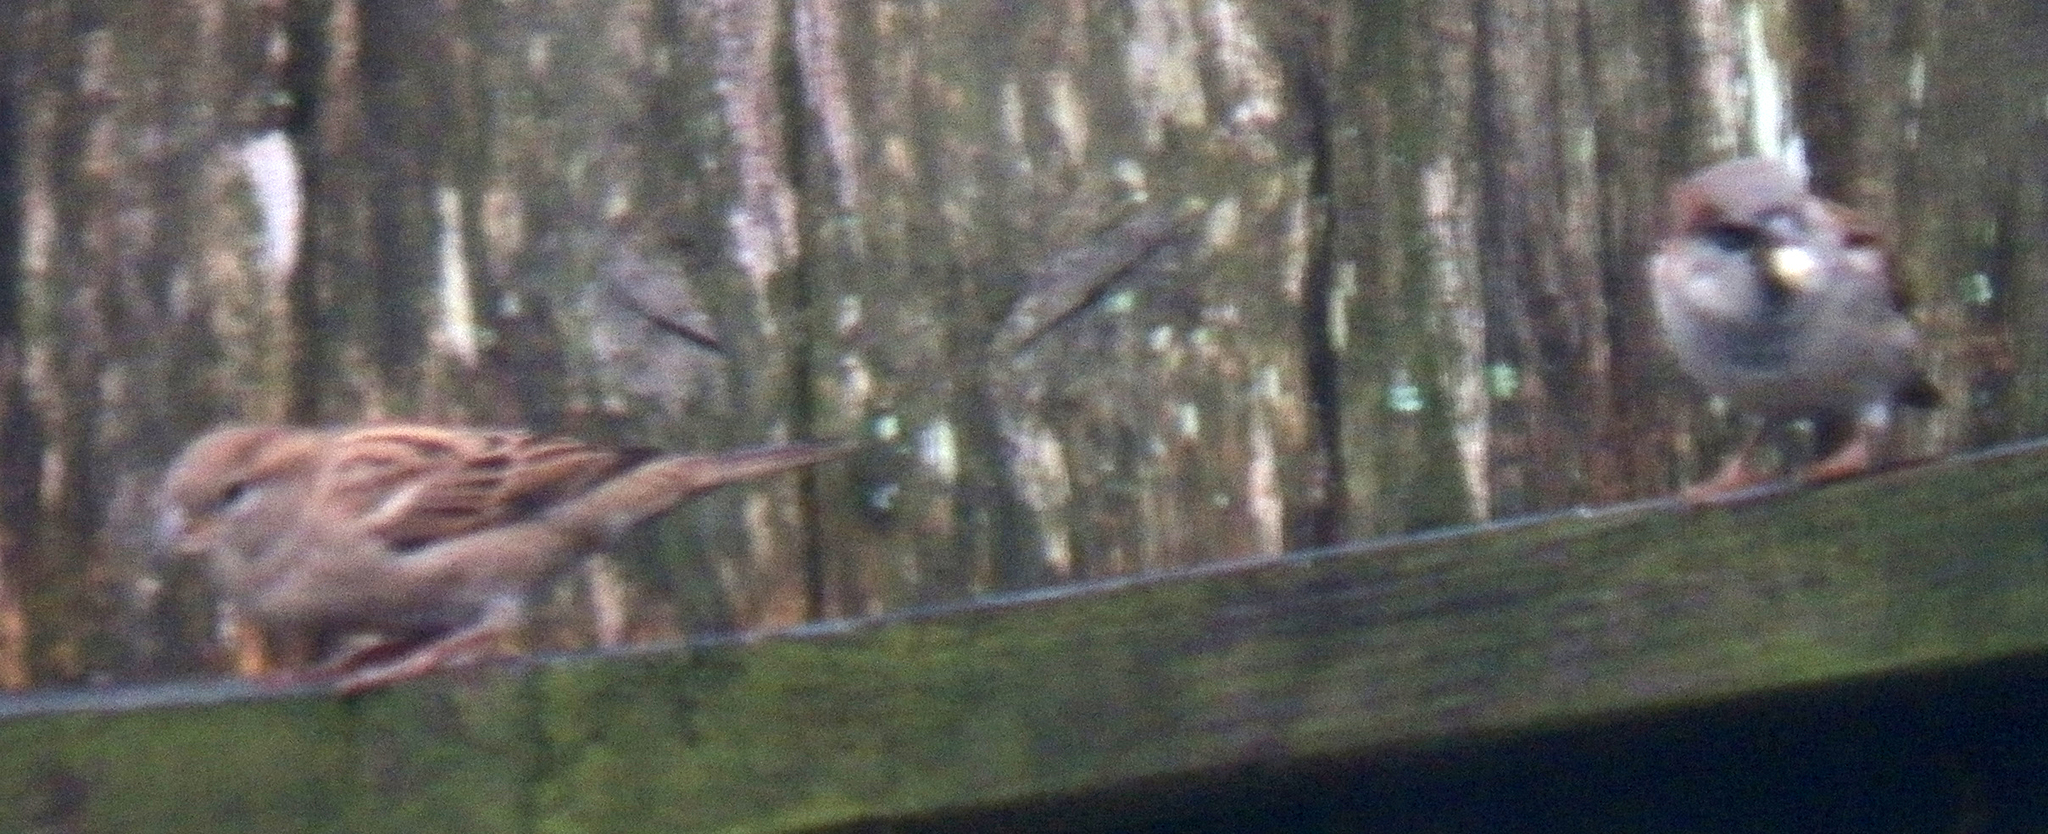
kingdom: Animalia
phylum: Chordata
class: Aves
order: Passeriformes
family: Passeridae
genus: Passer
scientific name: Passer domesticus
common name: House sparrow
